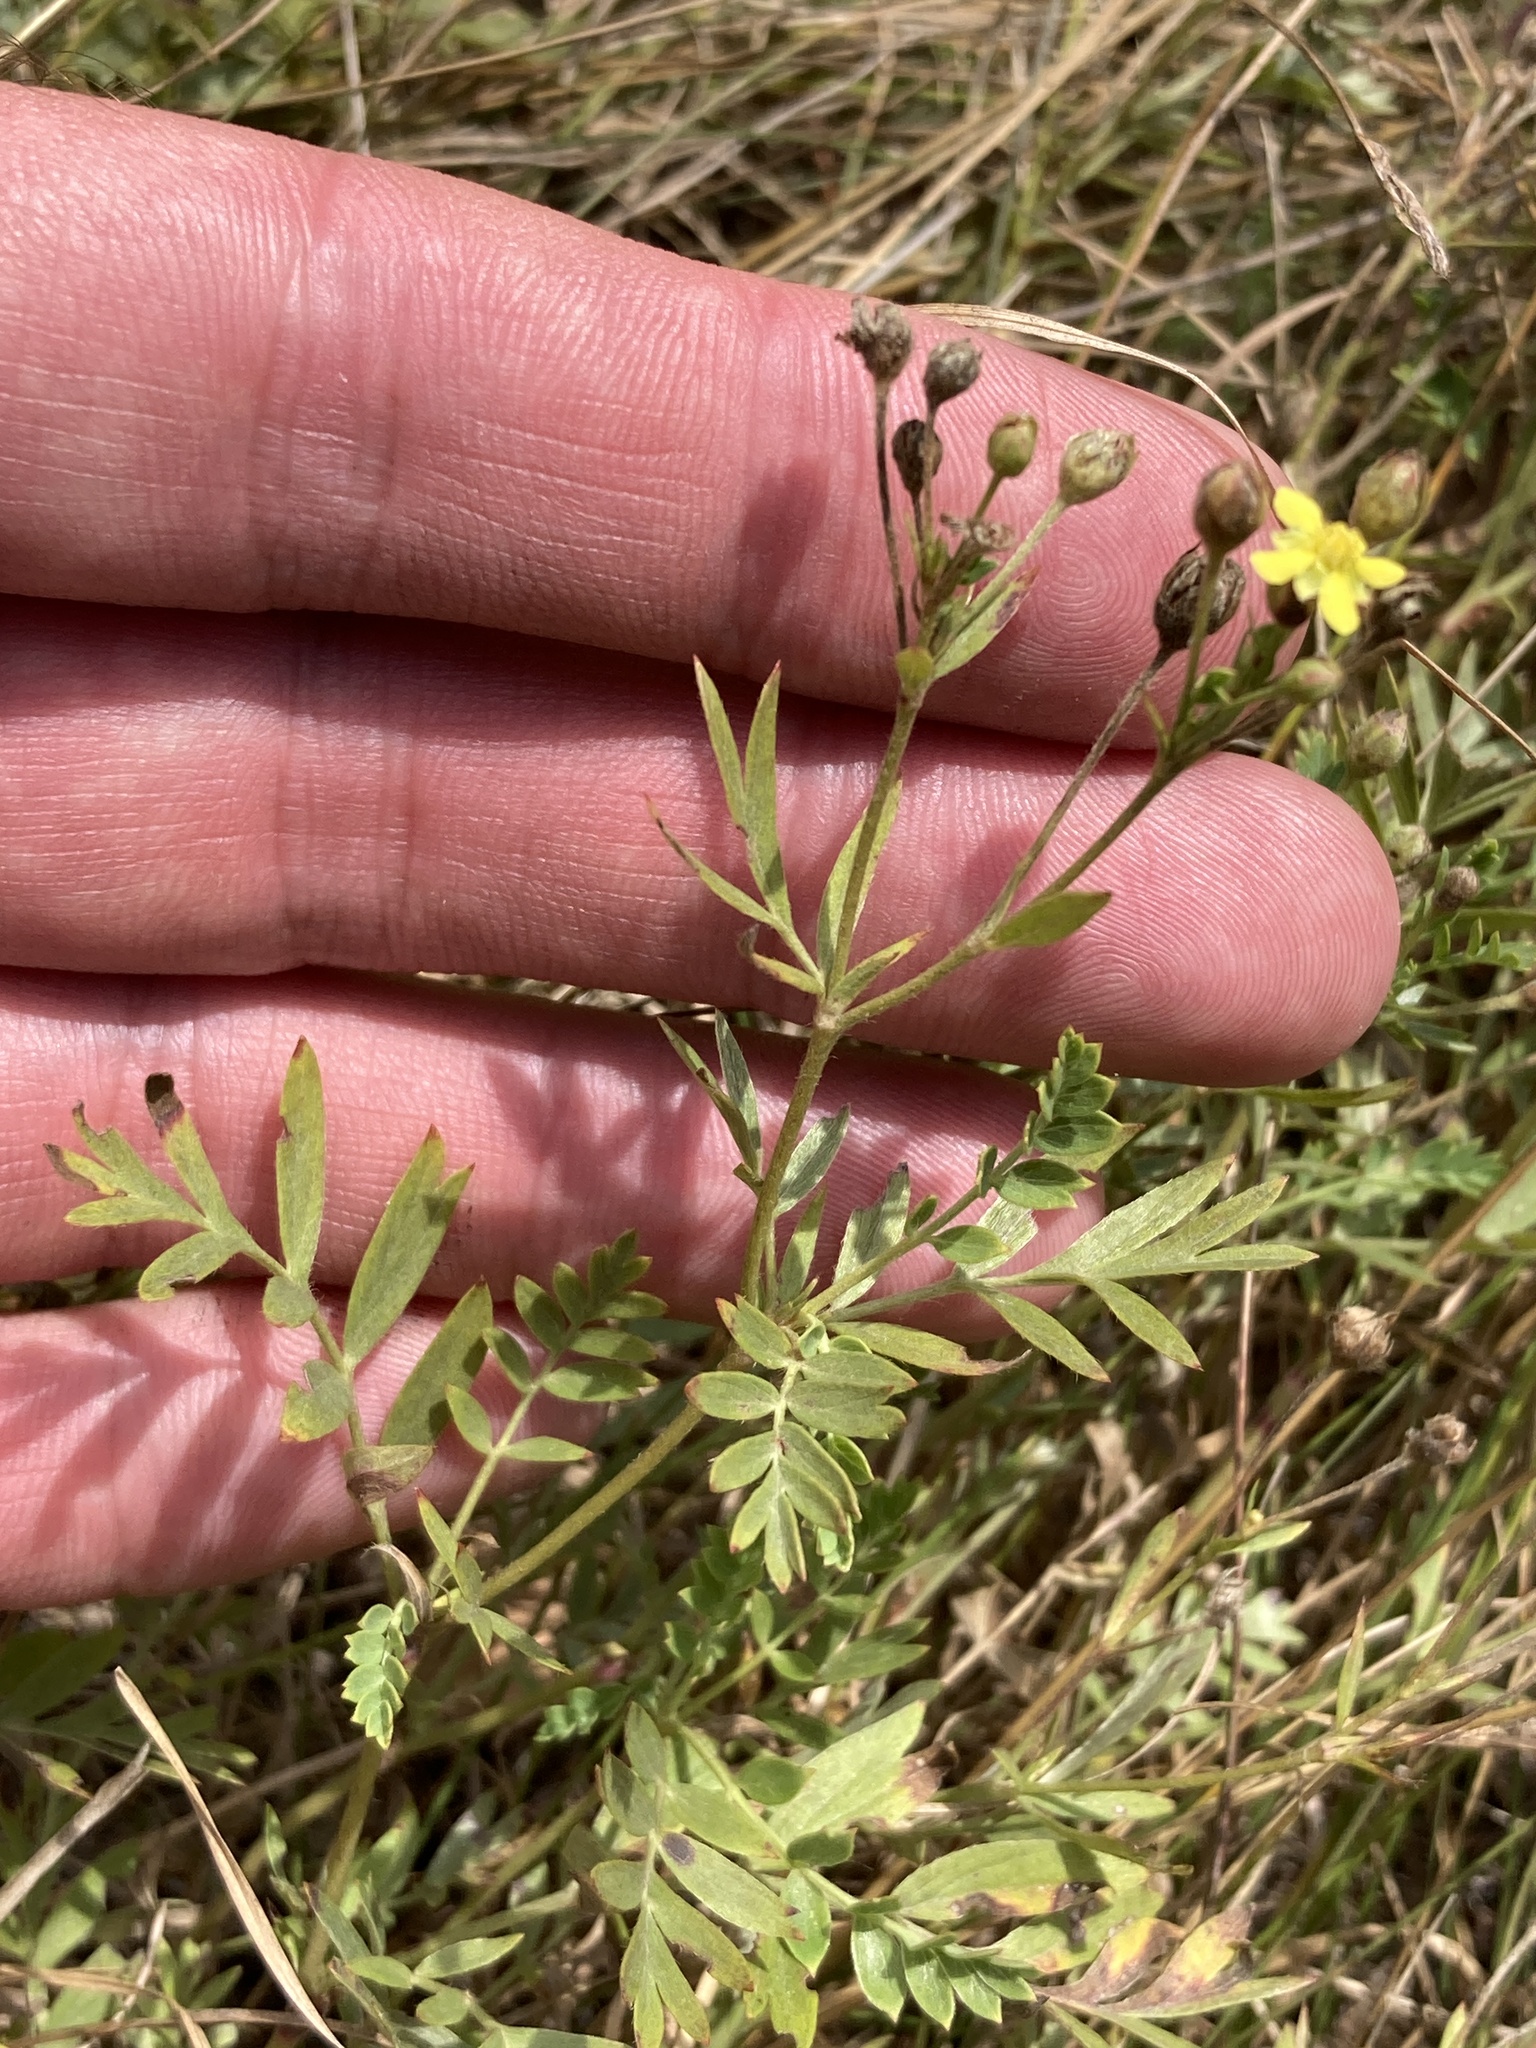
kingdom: Plantae
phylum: Tracheophyta
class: Magnoliopsida
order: Rosales
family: Rosaceae
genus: Sibbaldianthe
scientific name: Sibbaldianthe bifurca
